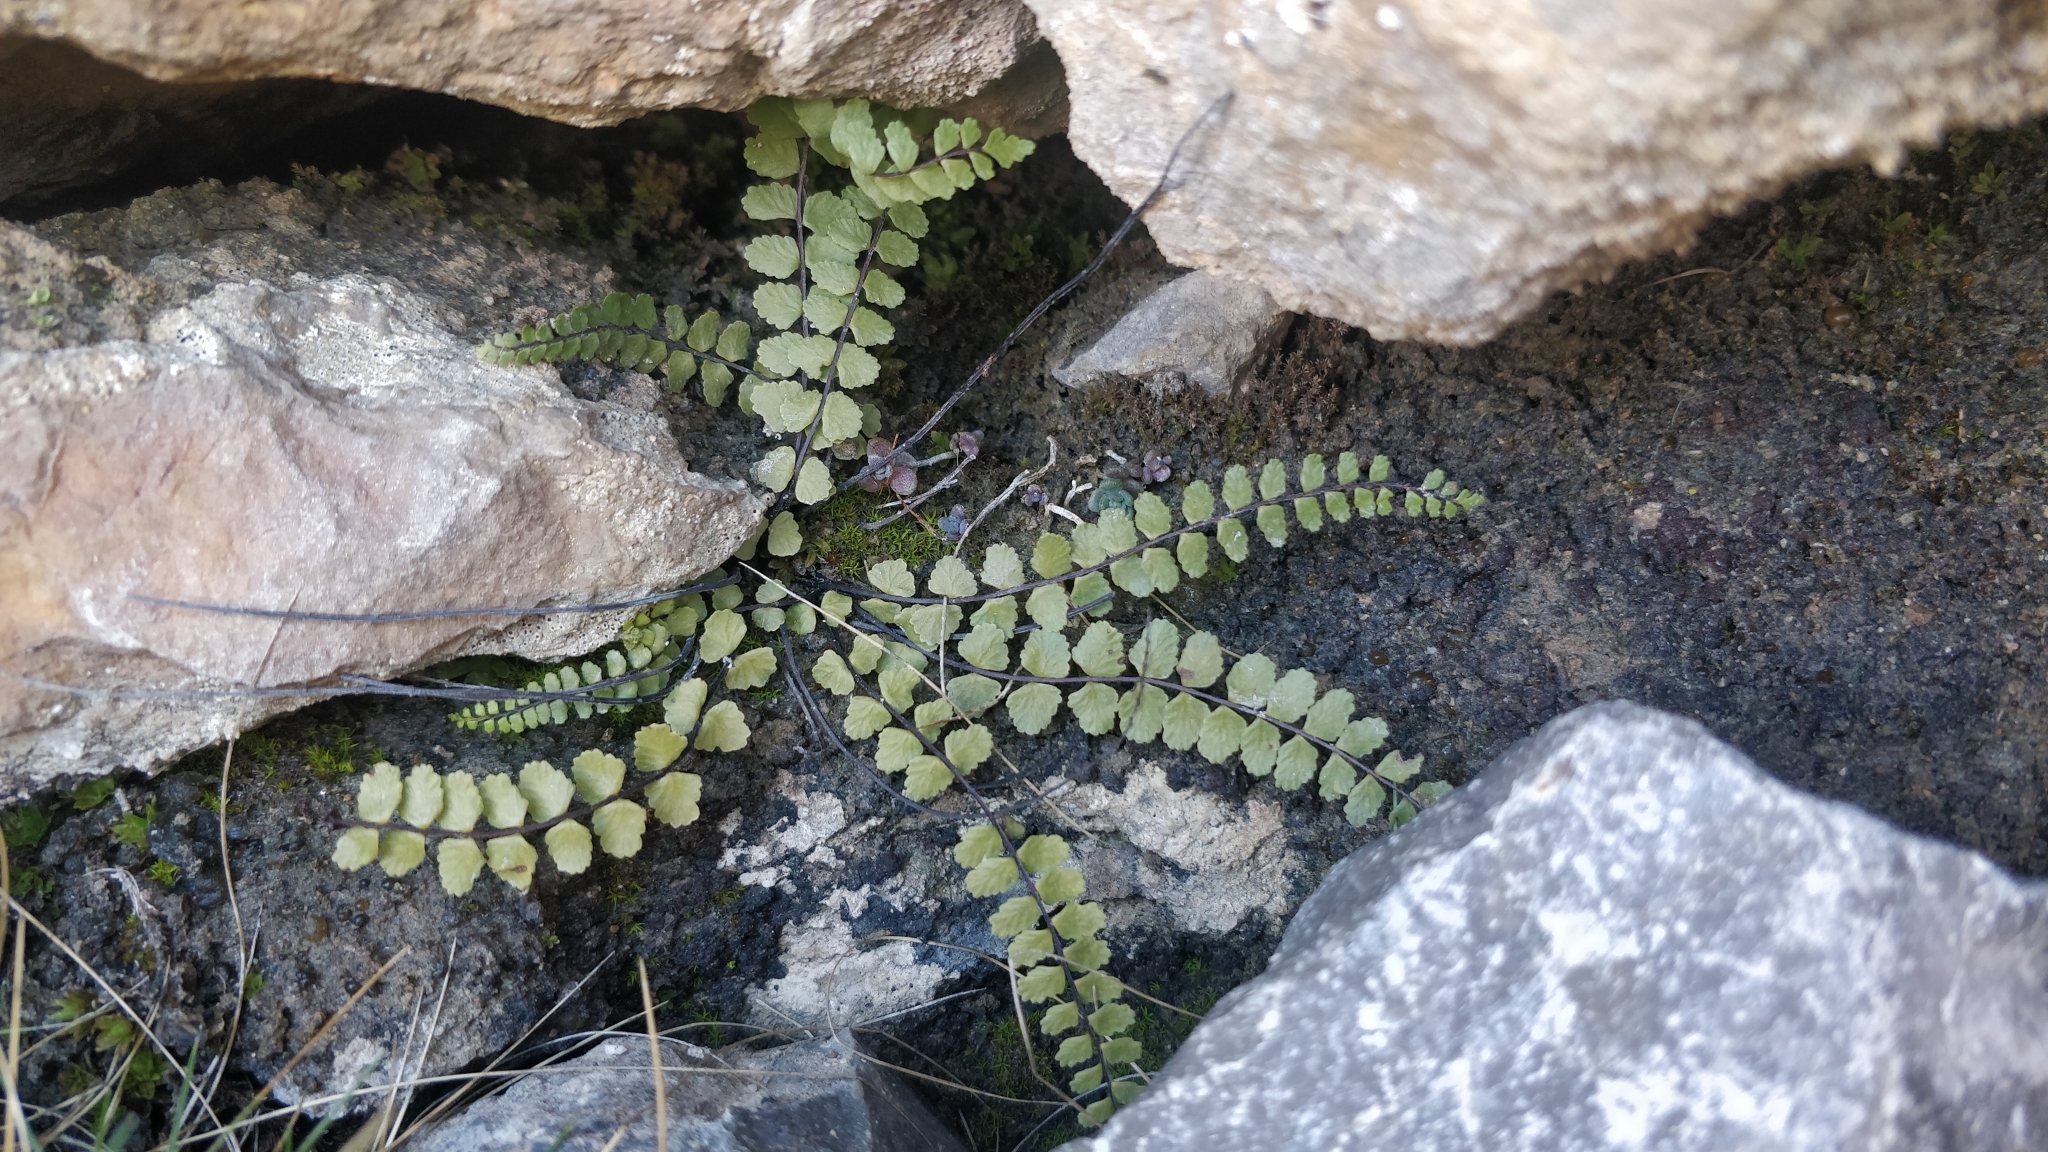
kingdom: Plantae
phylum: Tracheophyta
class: Polypodiopsida
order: Polypodiales
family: Aspleniaceae
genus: Asplenium
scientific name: Asplenium trichomanes
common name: Maidenhair spleenwort
